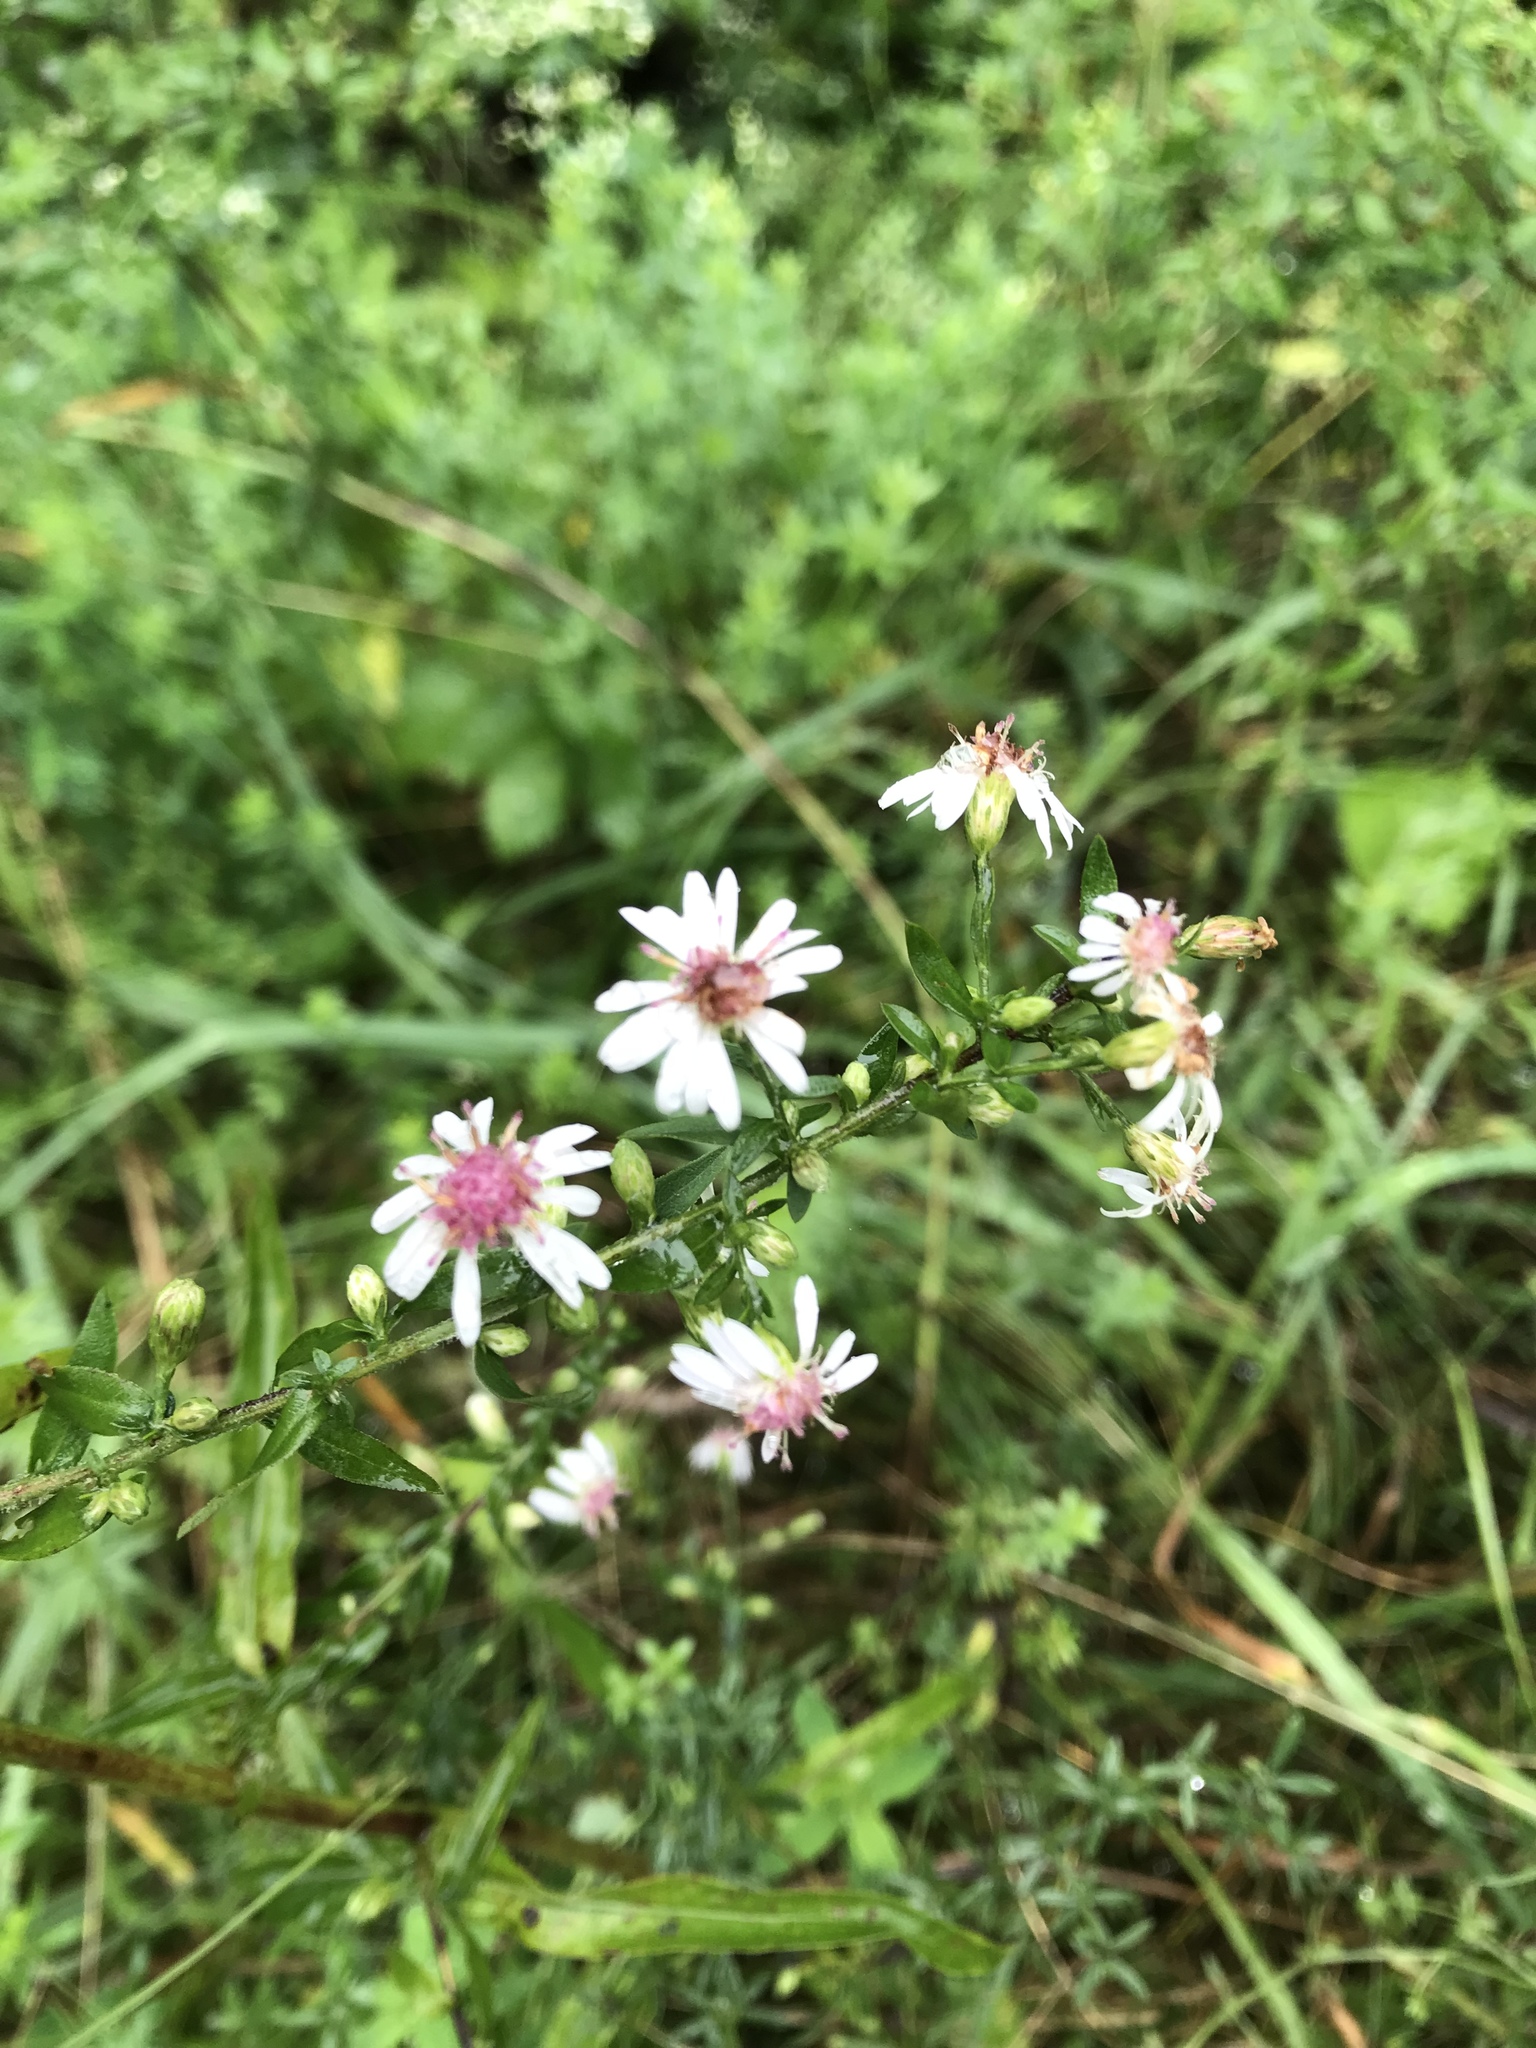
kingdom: Plantae
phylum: Tracheophyta
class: Magnoliopsida
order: Asterales
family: Asteraceae
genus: Symphyotrichum
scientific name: Symphyotrichum lateriflorum
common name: Calico aster
